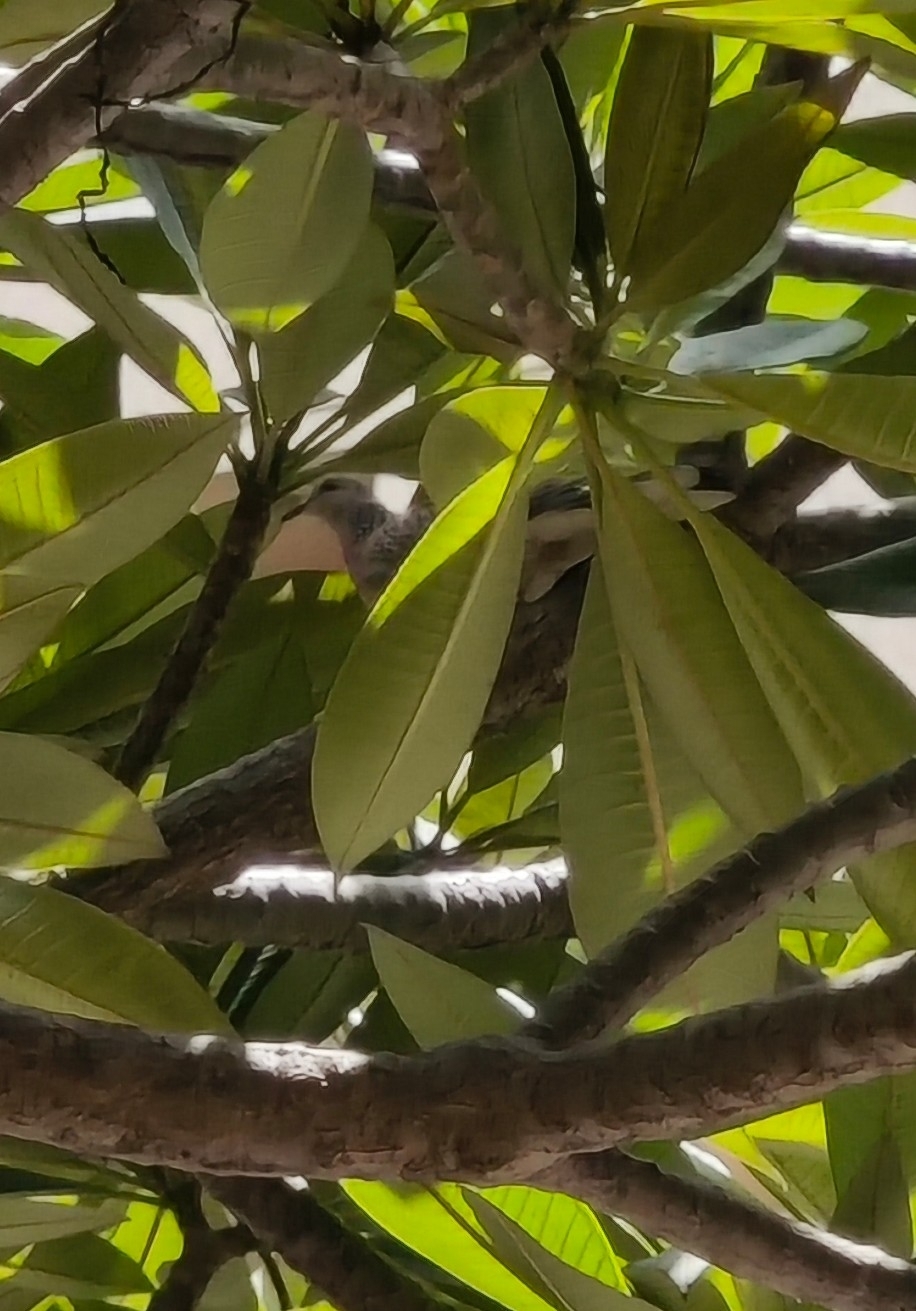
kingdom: Animalia
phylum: Chordata
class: Aves
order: Columbiformes
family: Columbidae
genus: Spilopelia
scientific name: Spilopelia chinensis
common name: Spotted dove
